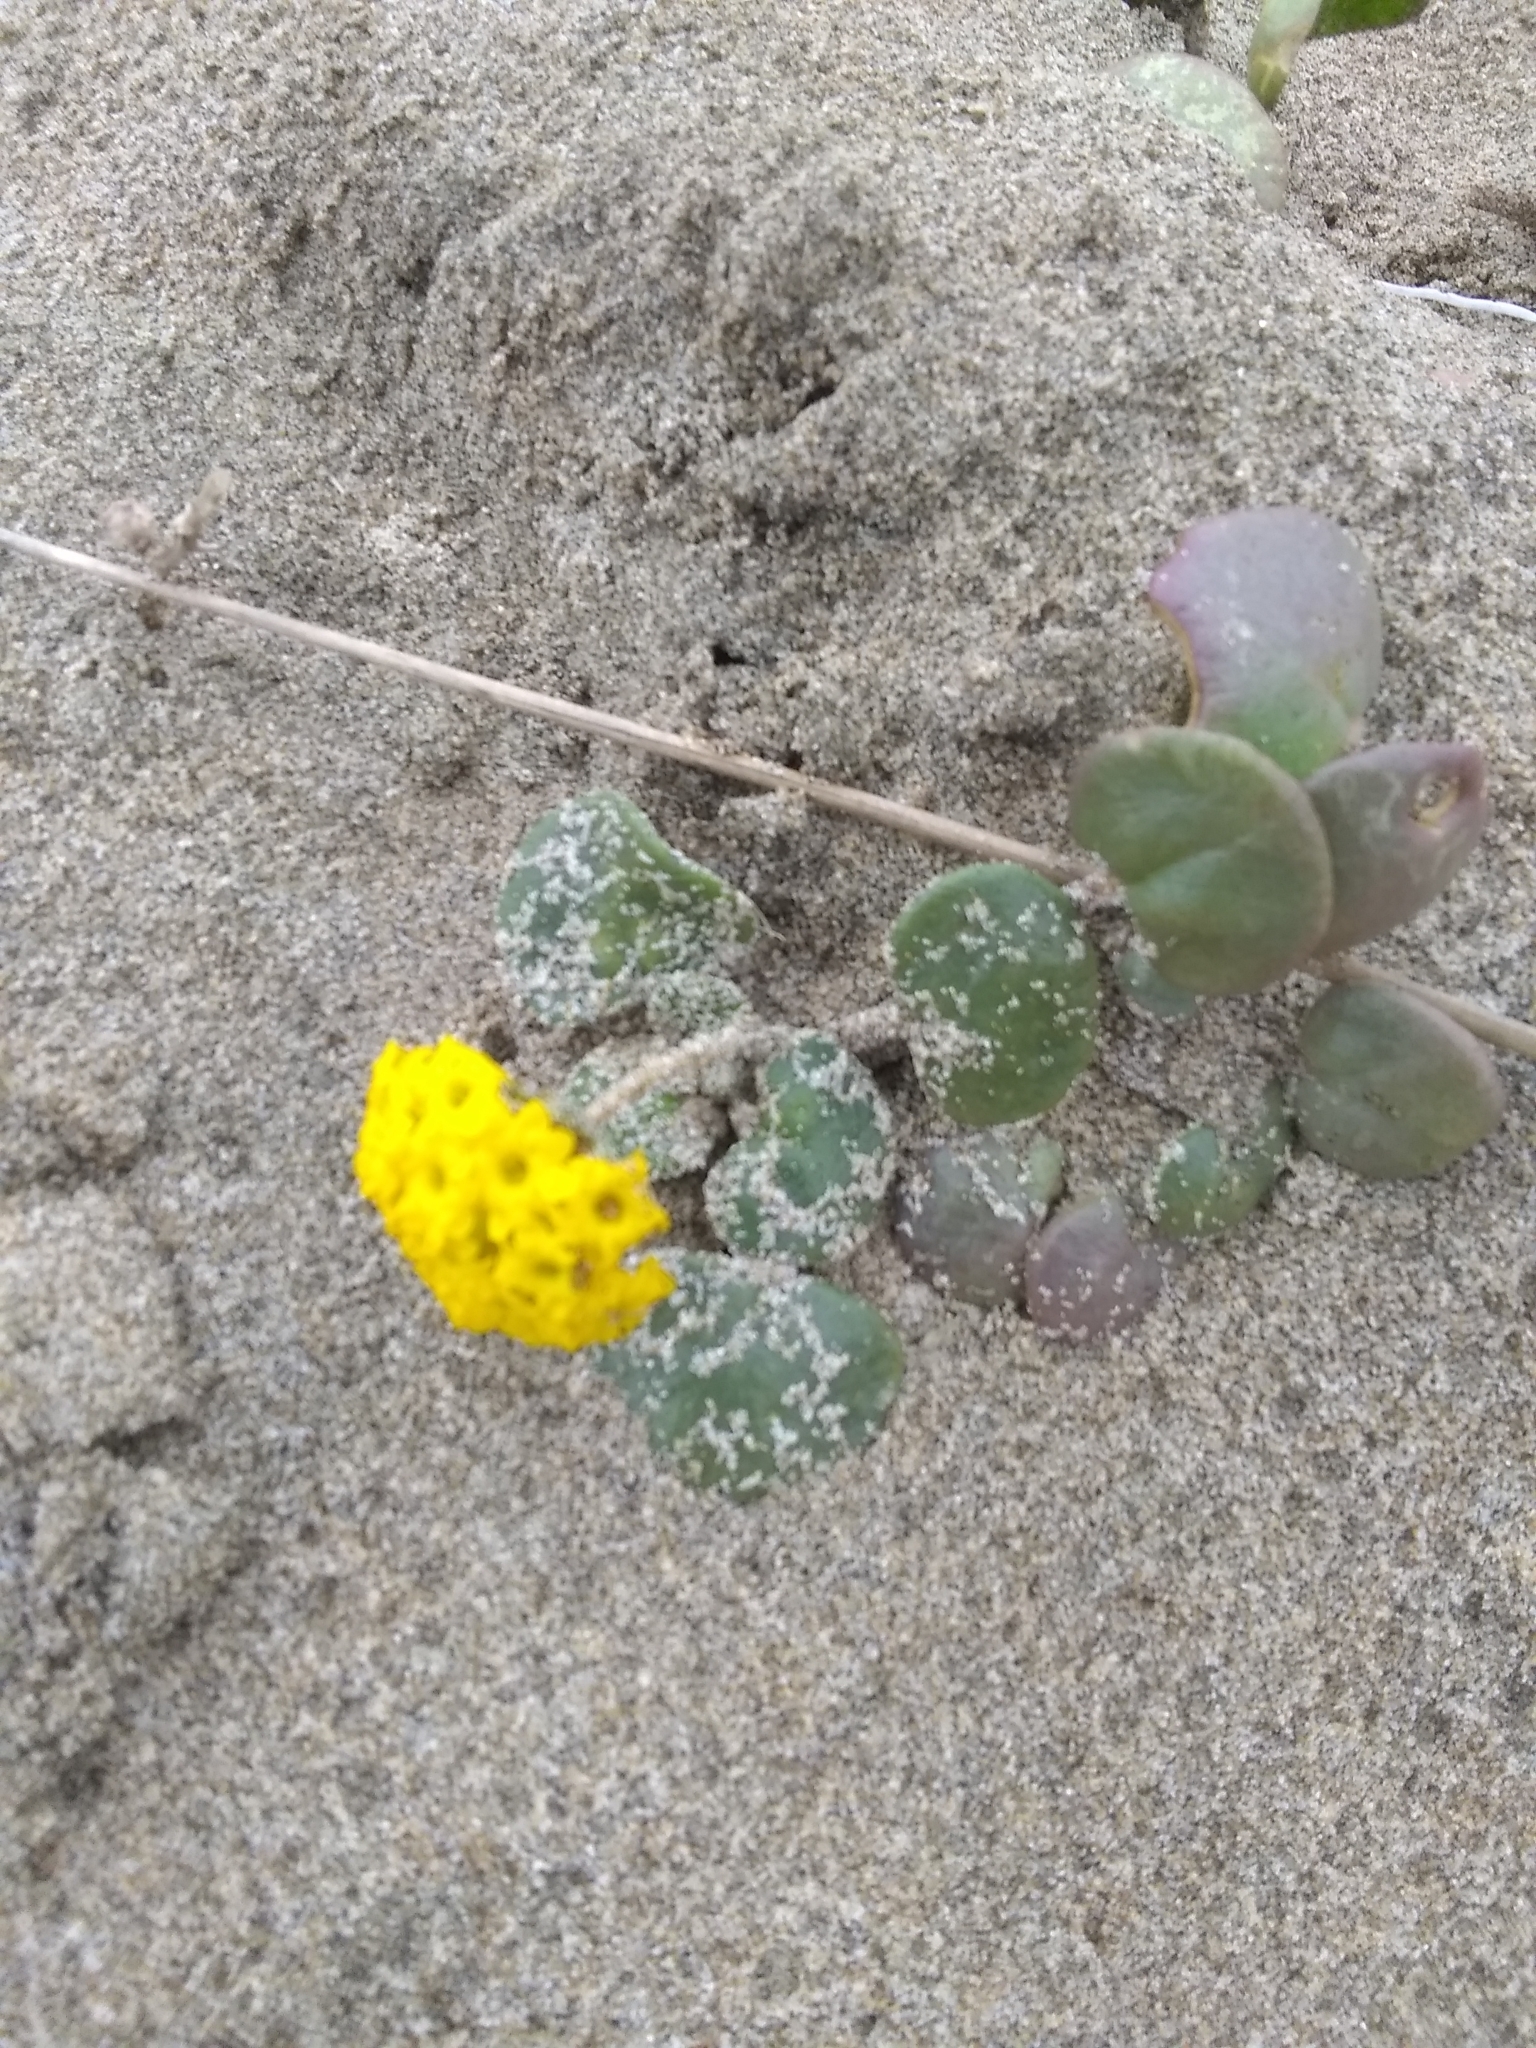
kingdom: Plantae
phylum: Tracheophyta
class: Magnoliopsida
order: Caryophyllales
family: Nyctaginaceae
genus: Abronia
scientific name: Abronia latifolia
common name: Yellow sand-verbena
